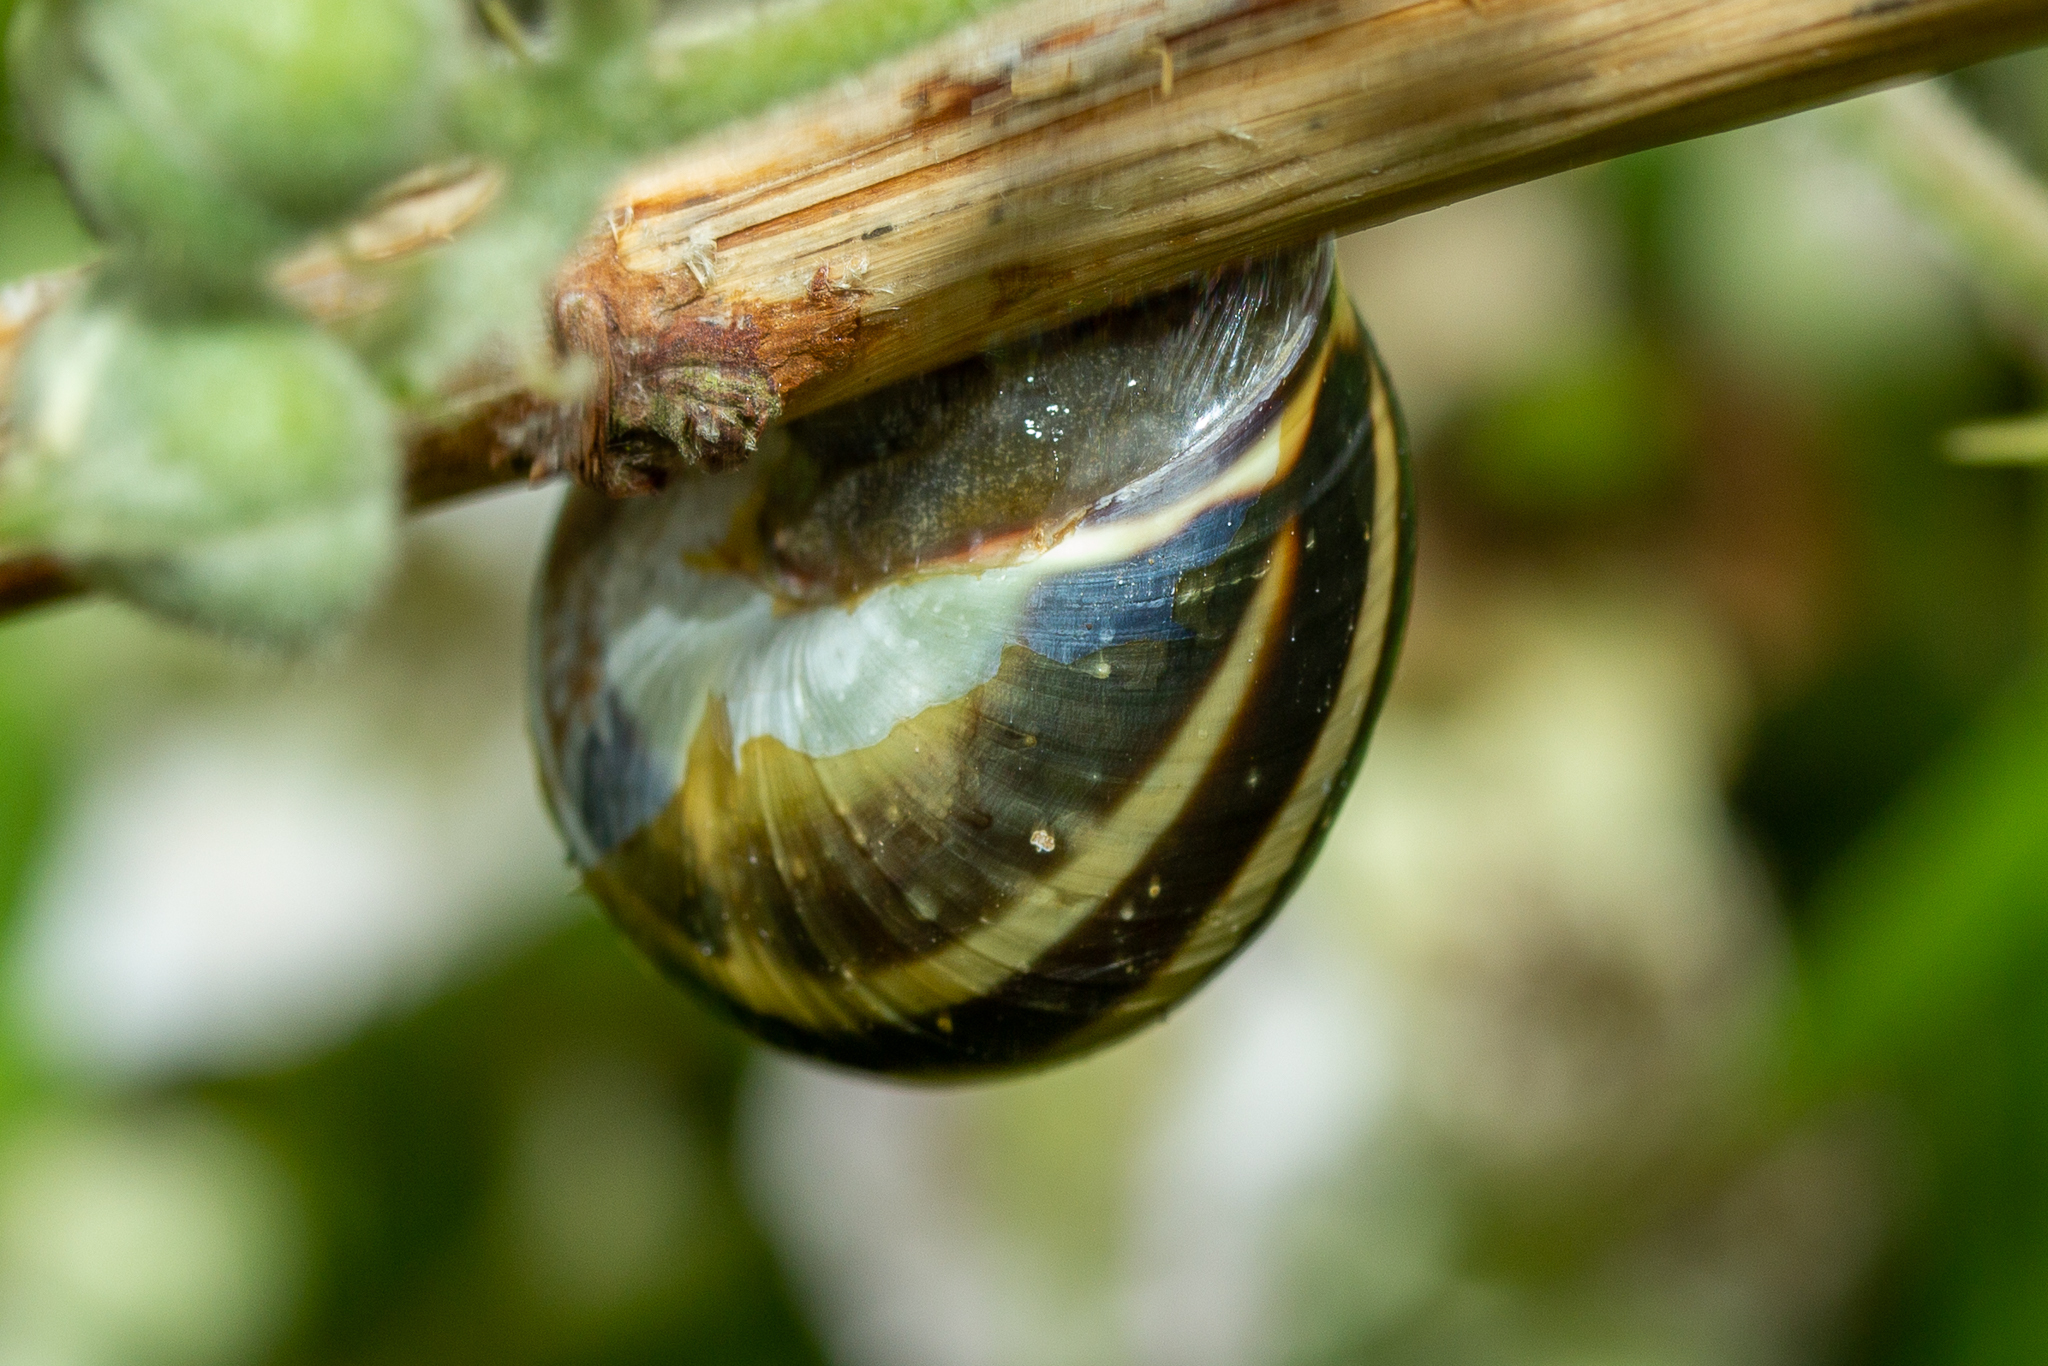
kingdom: Animalia
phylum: Mollusca
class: Gastropoda
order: Stylommatophora
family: Helicidae
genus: Cepaea
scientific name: Cepaea nemoralis
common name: Grovesnail
